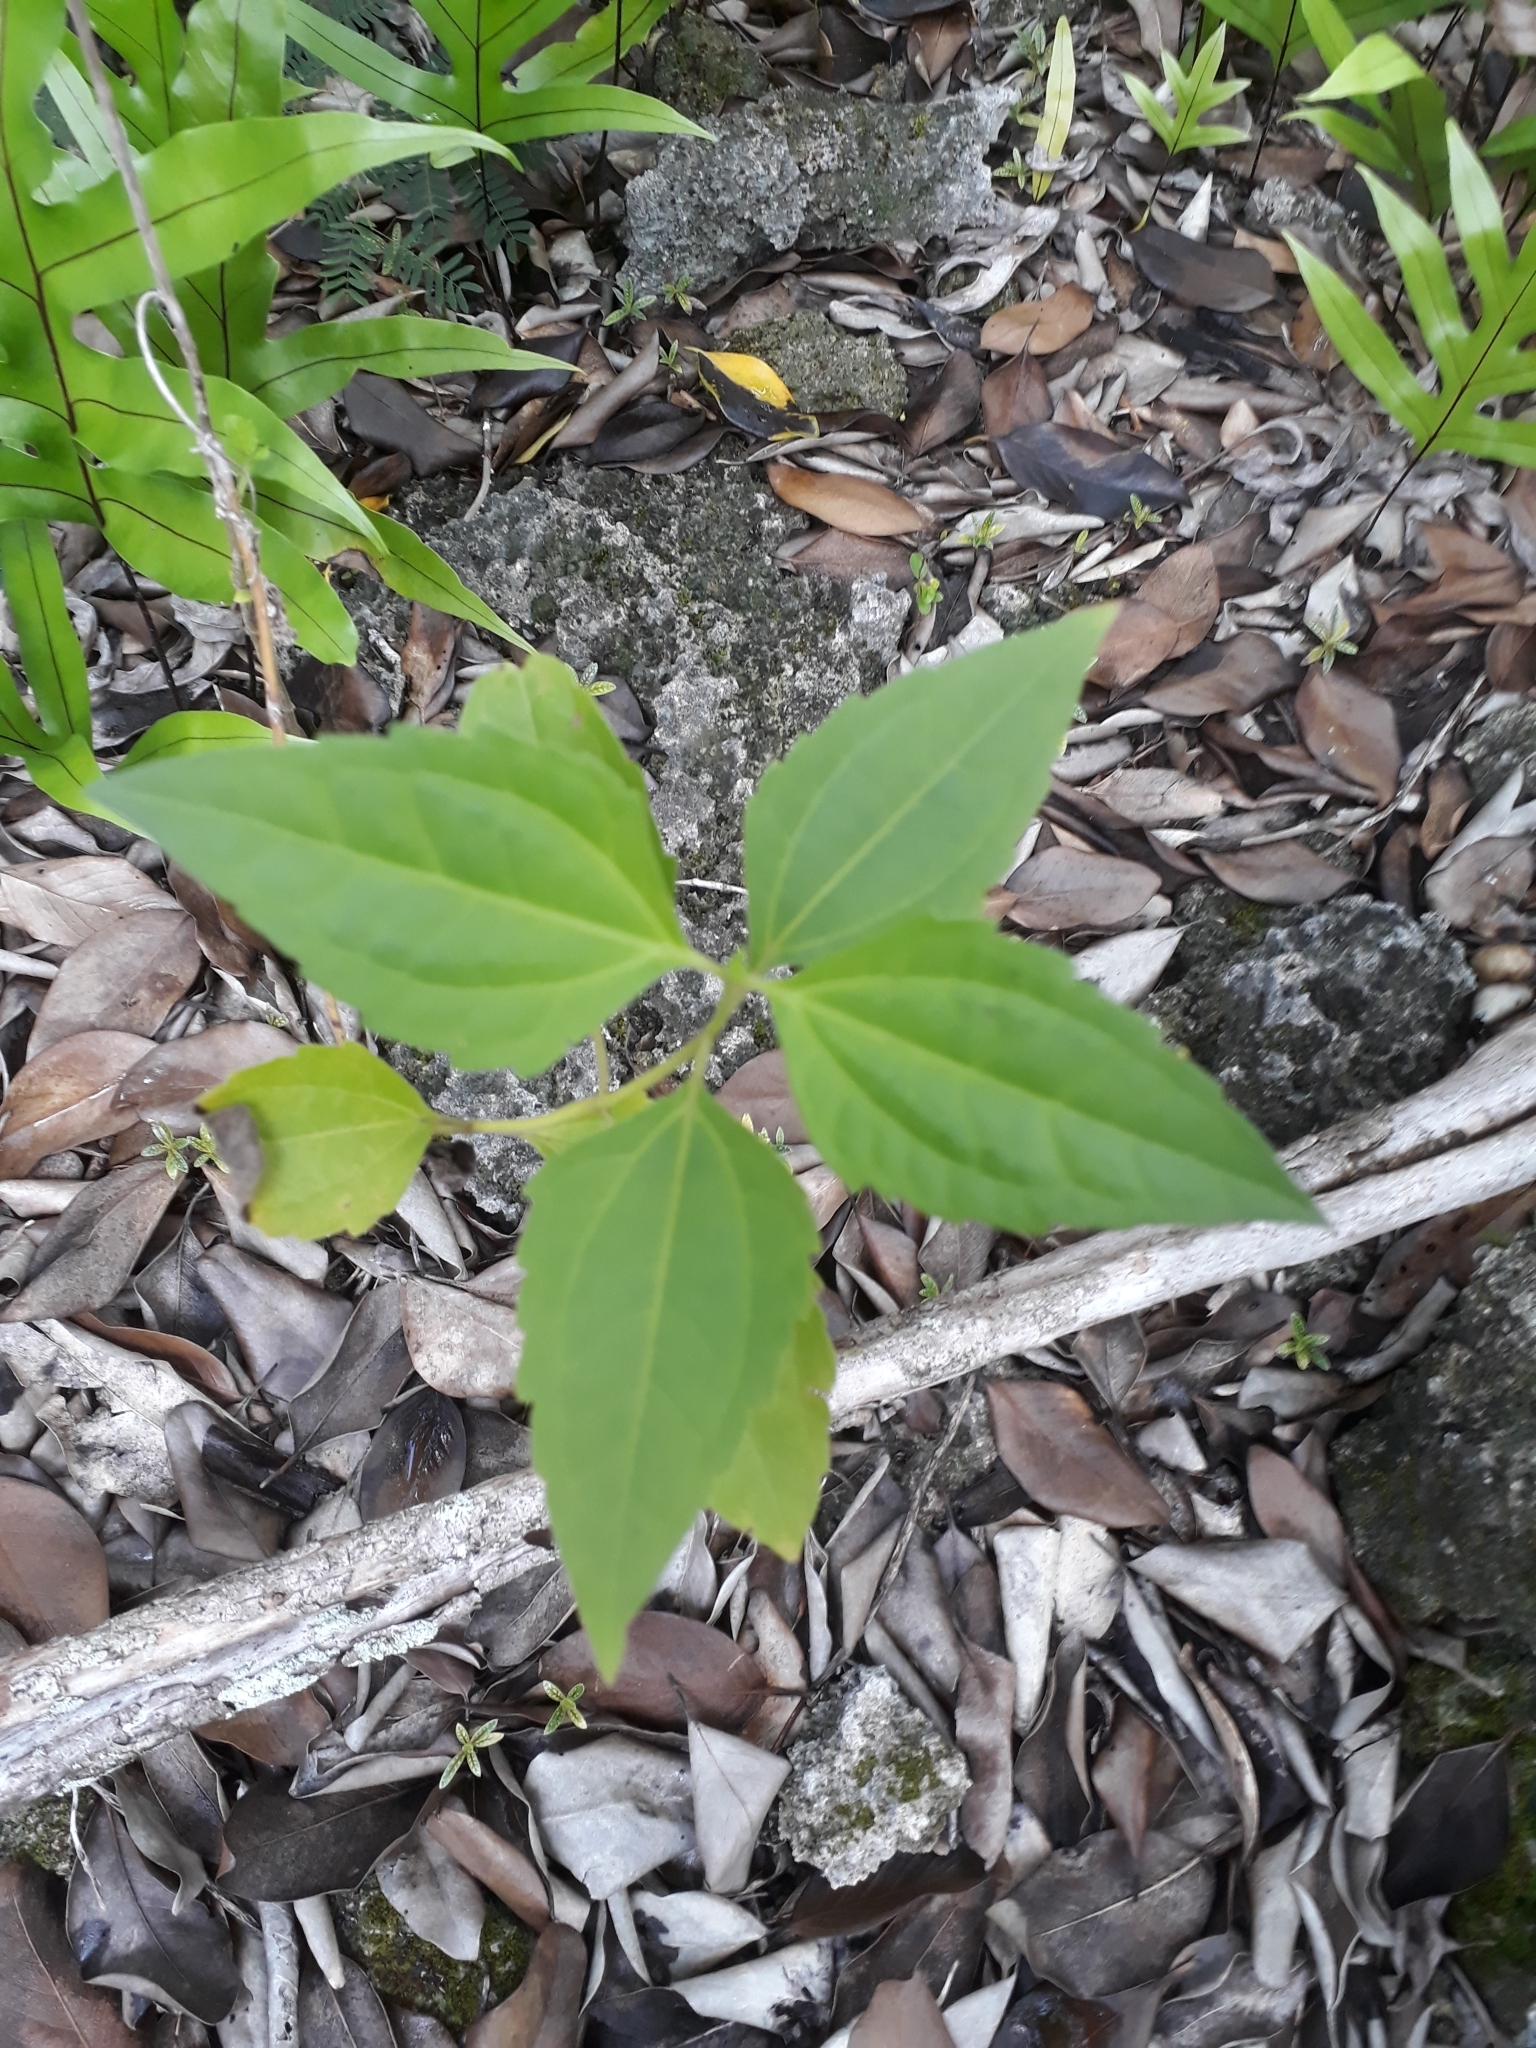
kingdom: Plantae
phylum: Tracheophyta
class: Magnoliopsida
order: Asterales
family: Asteraceae
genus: Chromolaena
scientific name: Chromolaena odorata
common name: Siamweed
